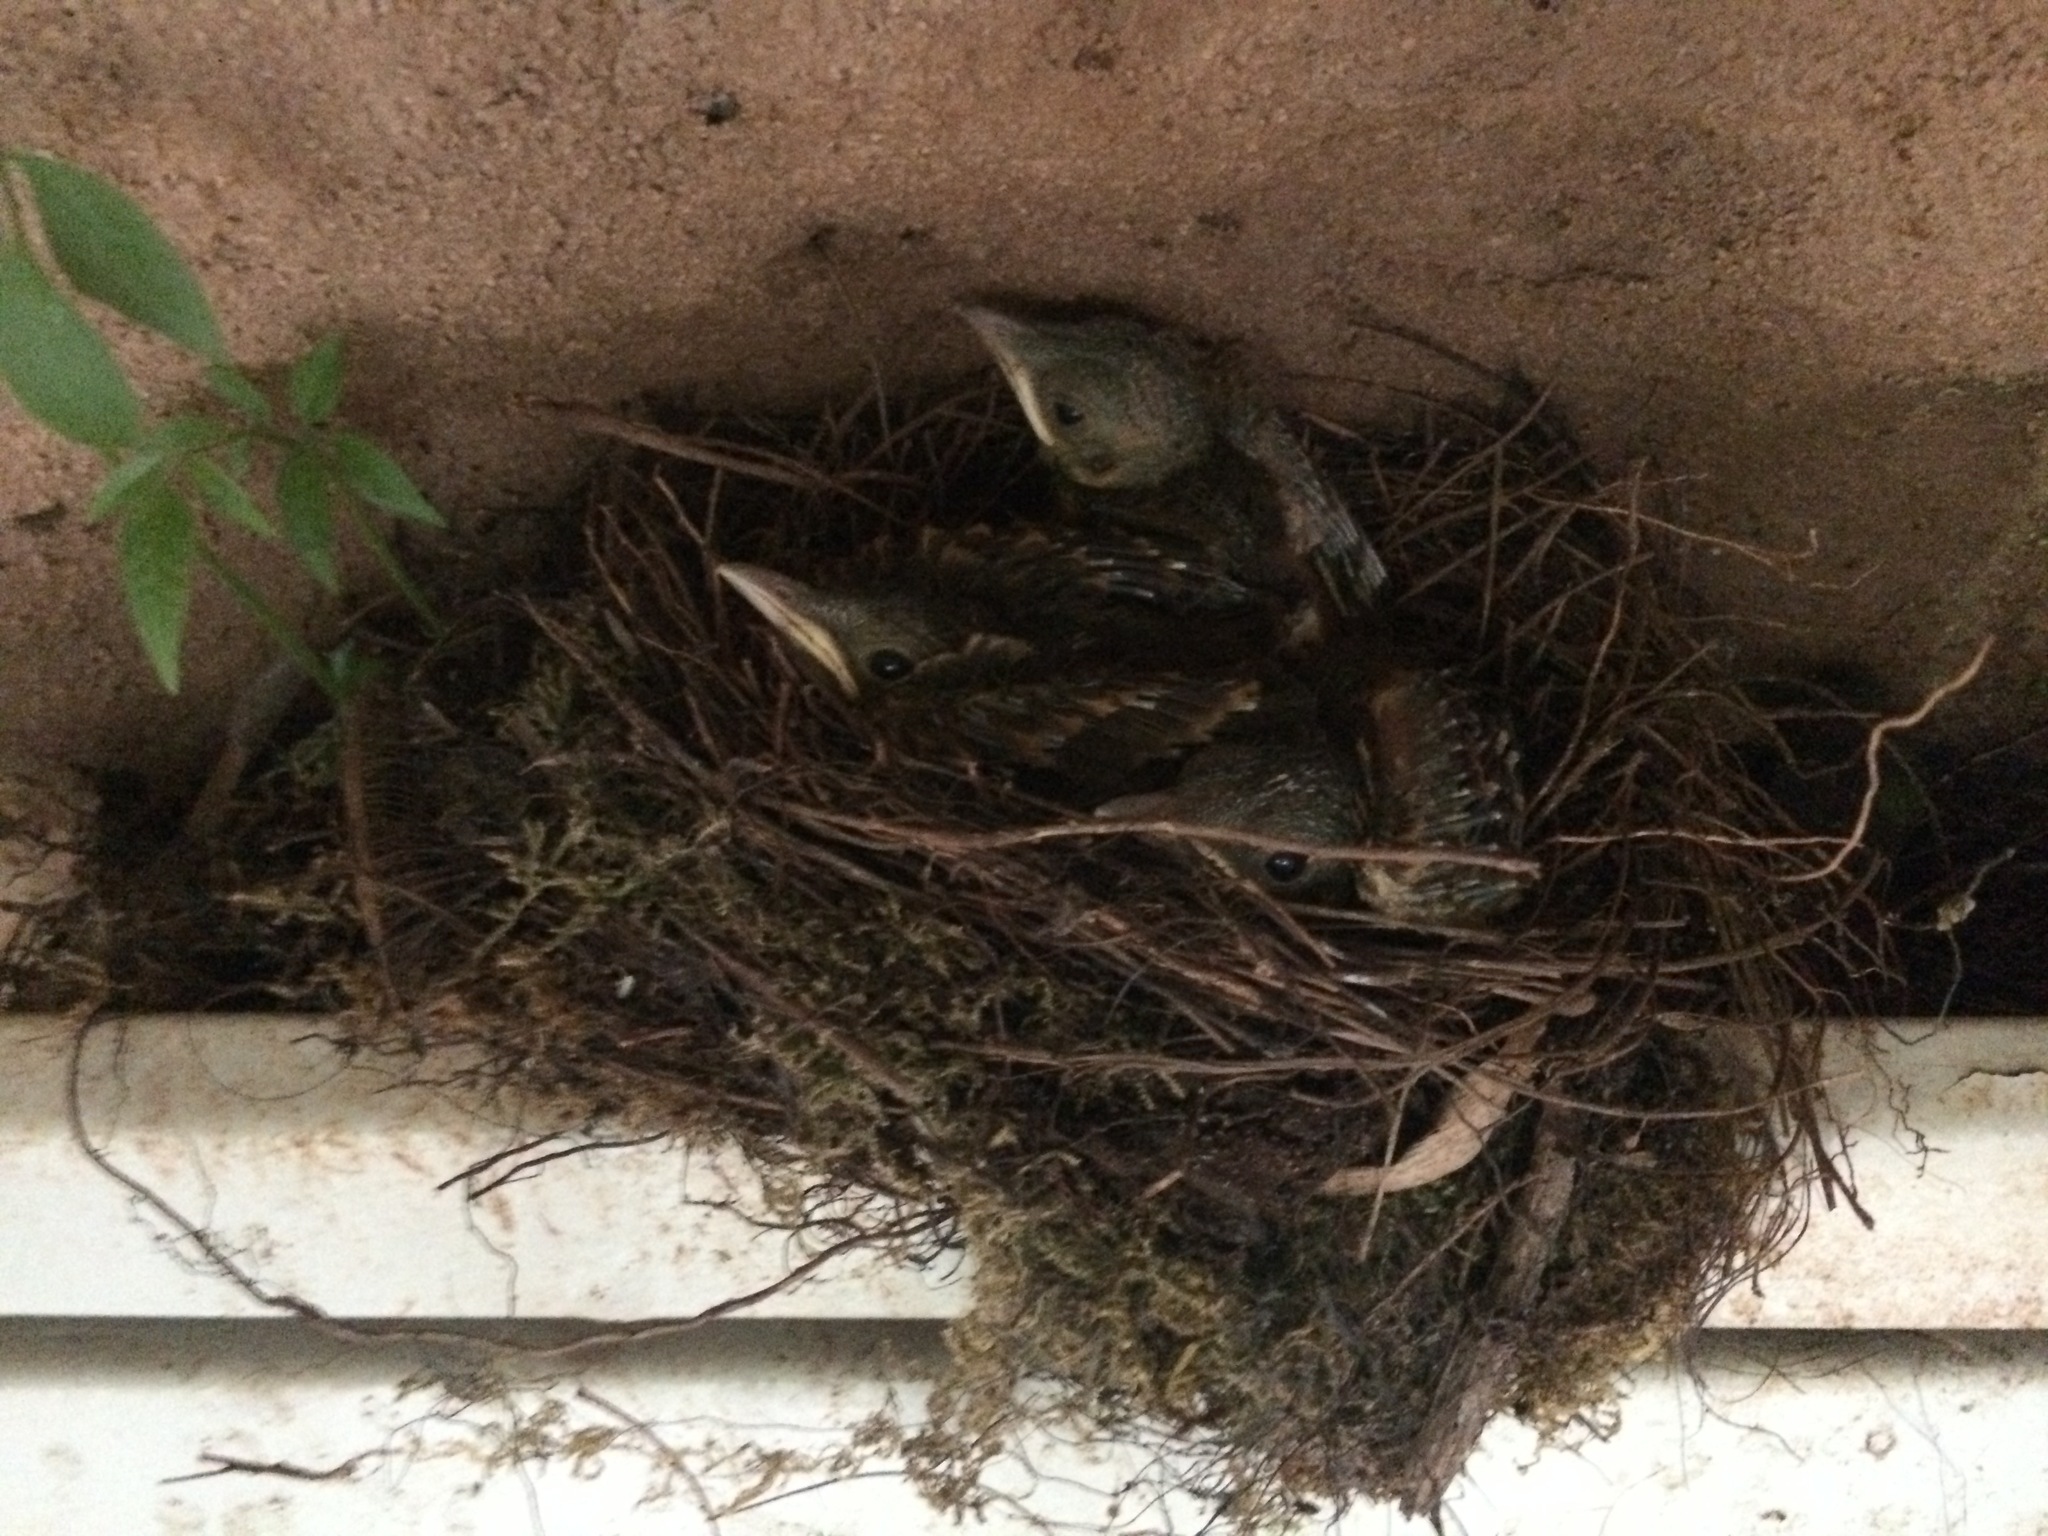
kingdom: Animalia
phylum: Chordata
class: Aves
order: Passeriformes
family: Turdidae
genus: Turdus
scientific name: Turdus leucomelas
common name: Pale-breasted thrush
